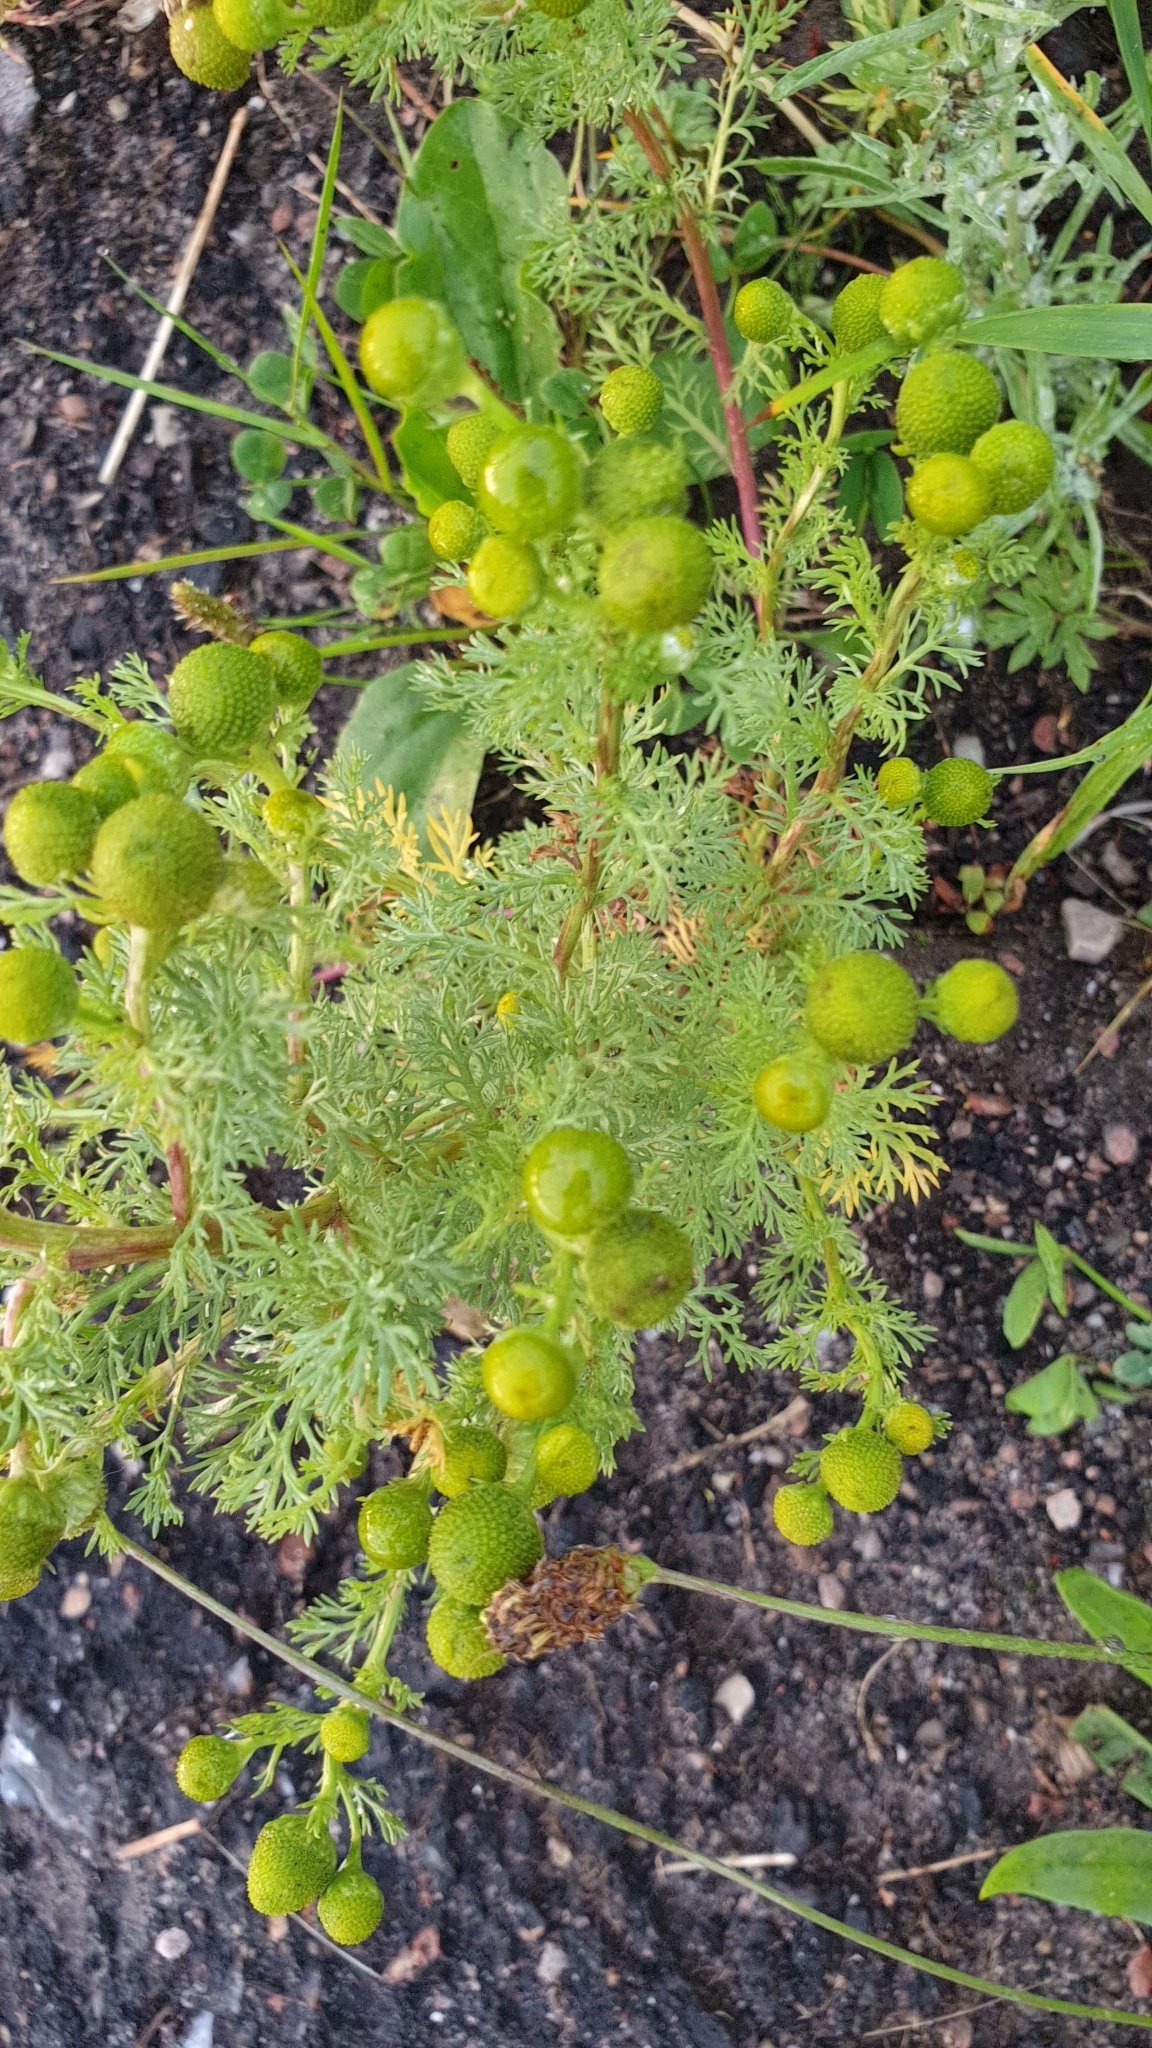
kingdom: Plantae
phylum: Tracheophyta
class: Magnoliopsida
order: Asterales
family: Asteraceae
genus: Matricaria
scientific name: Matricaria discoidea
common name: Disc mayweed
